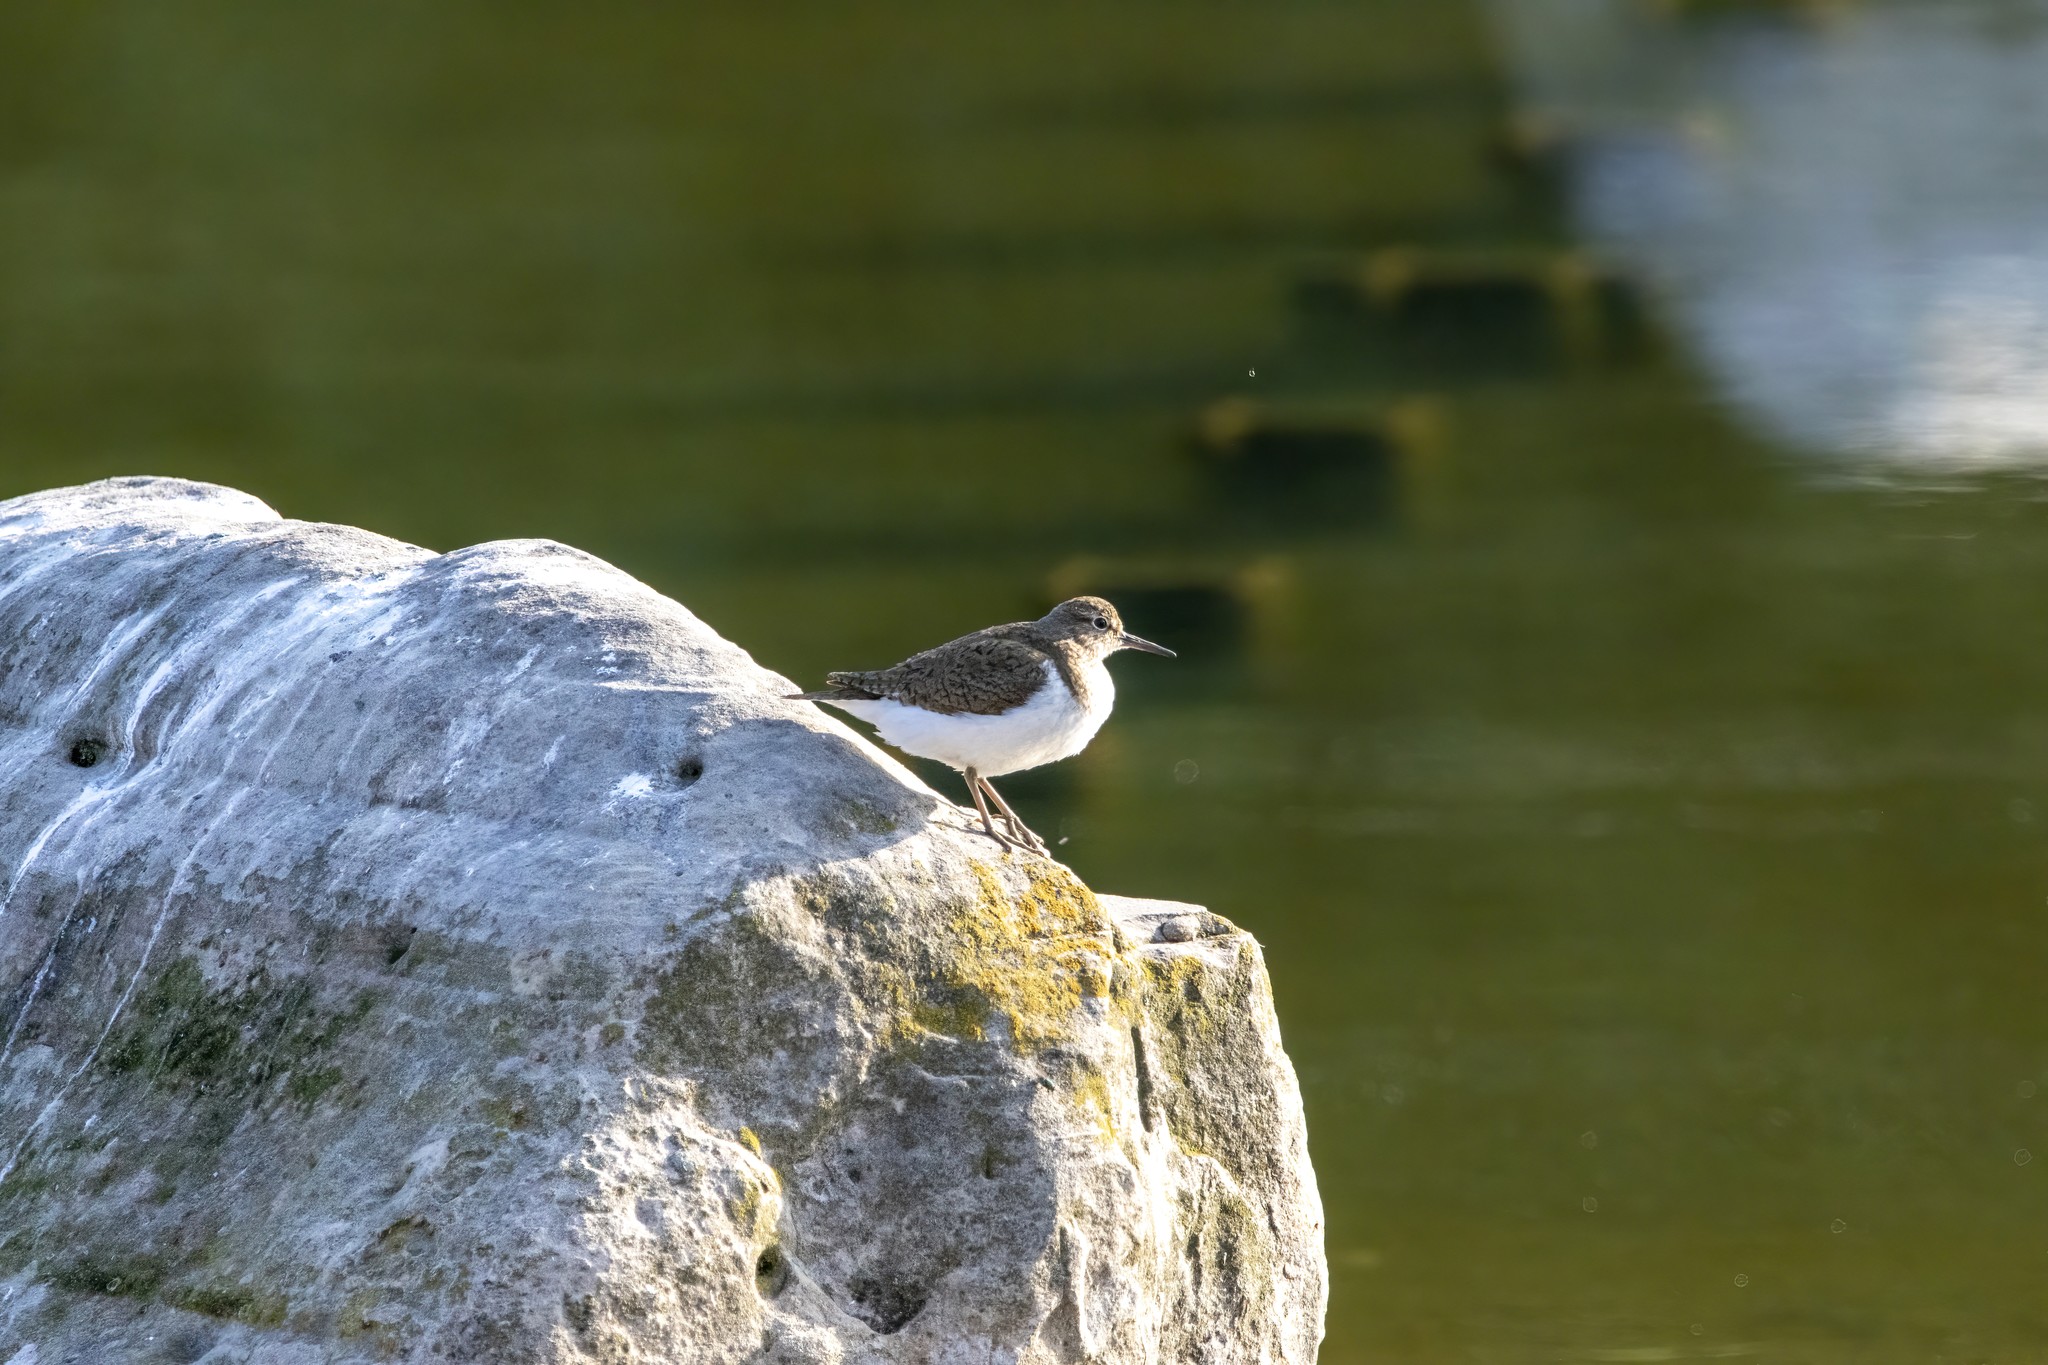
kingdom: Animalia
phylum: Chordata
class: Aves
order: Charadriiformes
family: Scolopacidae
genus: Actitis
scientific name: Actitis hypoleucos
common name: Common sandpiper
